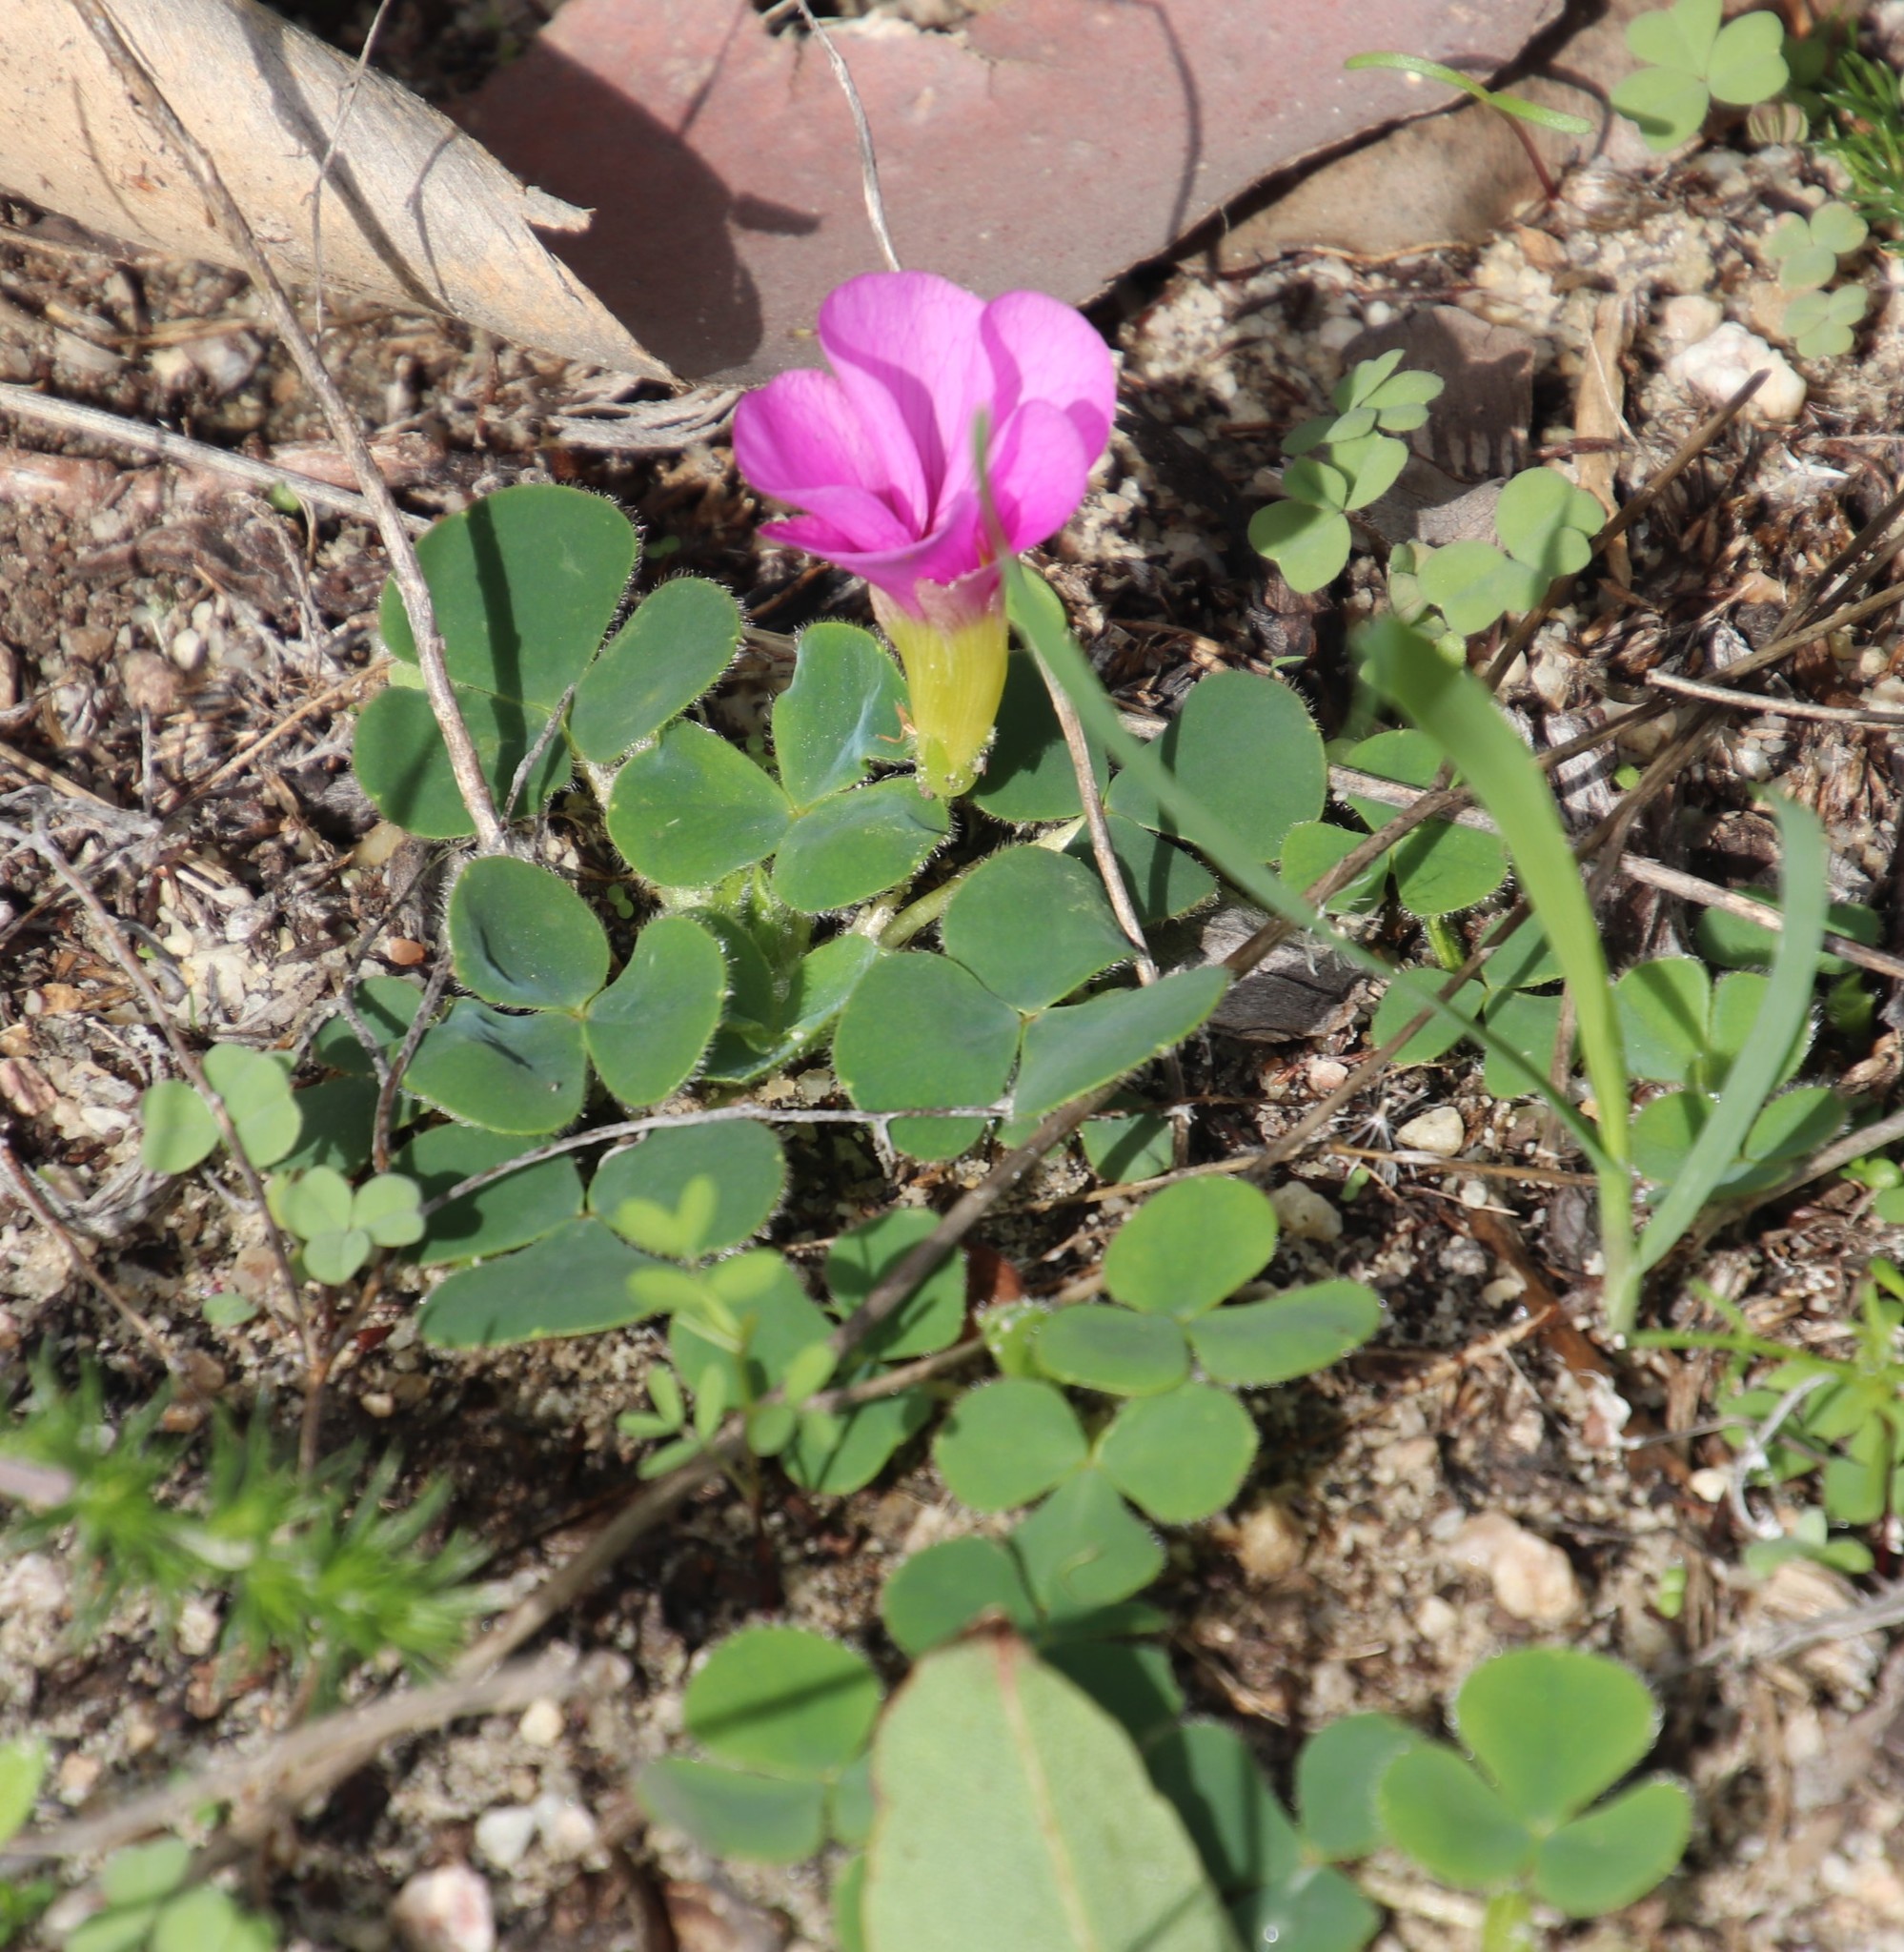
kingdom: Plantae
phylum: Tracheophyta
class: Magnoliopsida
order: Oxalidales
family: Oxalidaceae
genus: Oxalis
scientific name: Oxalis purpurea
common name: Purple woodsorrel
